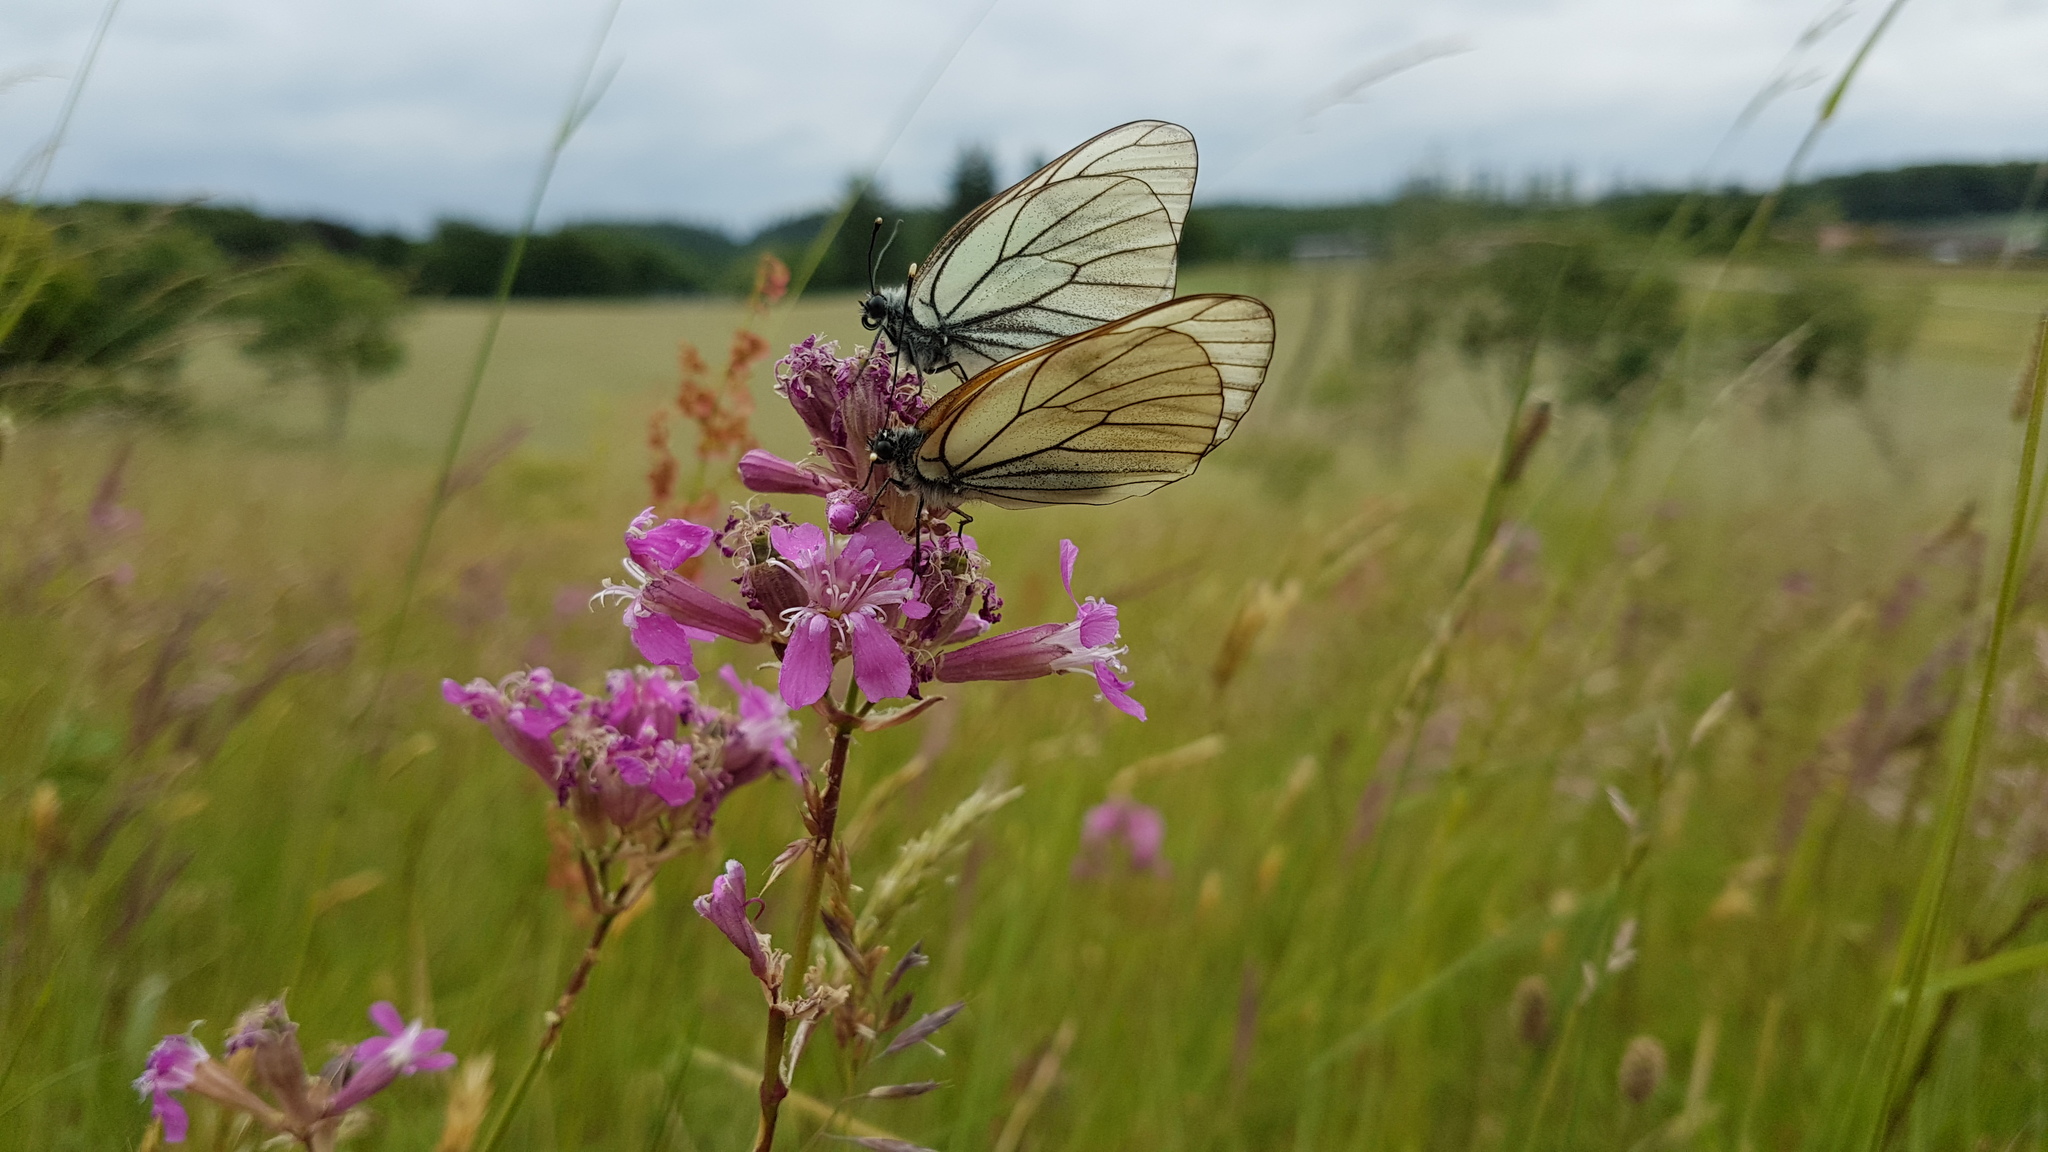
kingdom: Animalia
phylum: Arthropoda
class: Insecta
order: Lepidoptera
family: Pieridae
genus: Aporia
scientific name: Aporia crataegi
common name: Black-veined white
